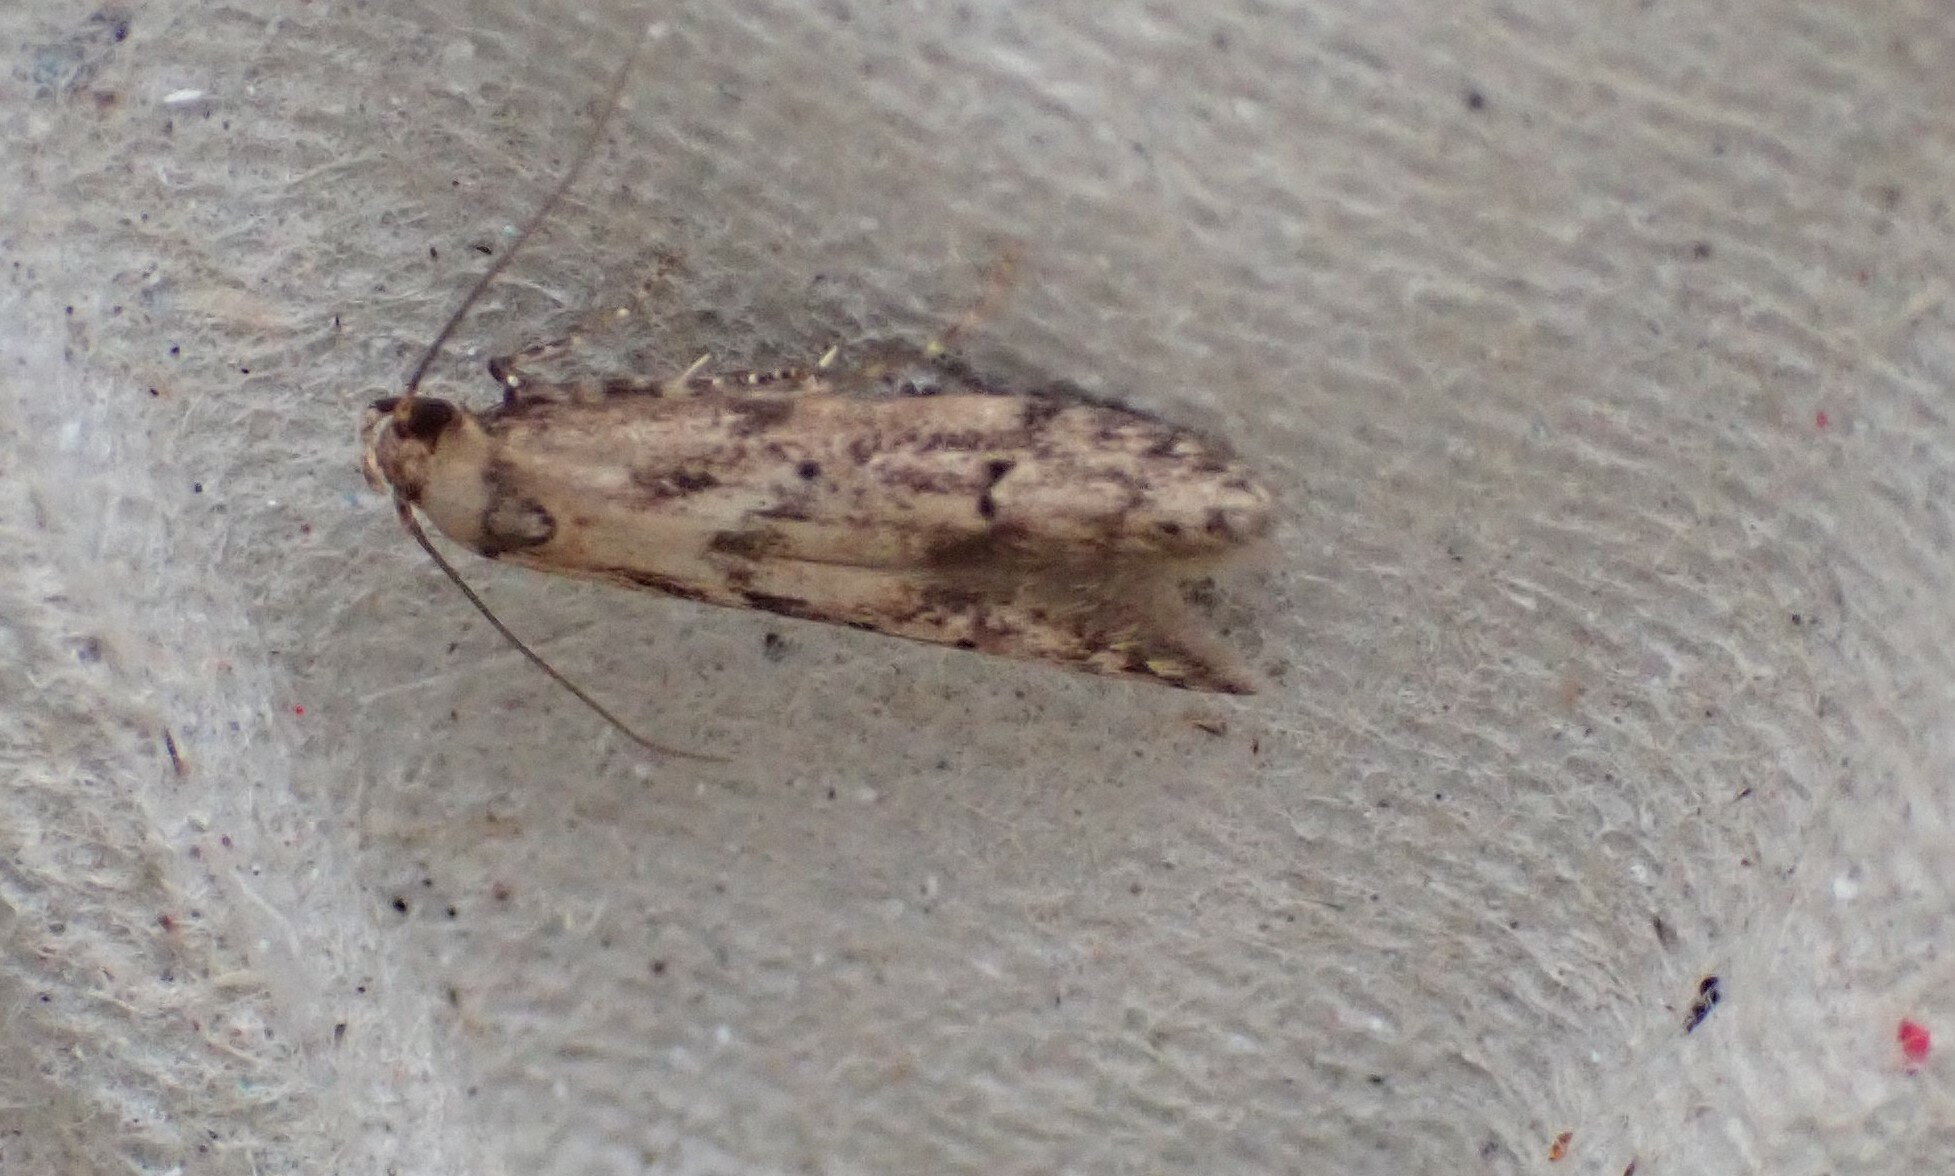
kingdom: Animalia
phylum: Arthropoda
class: Insecta
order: Lepidoptera
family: Blastobasidae
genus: Blastobasis
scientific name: Blastobasis adustella
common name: Dingy dowd
